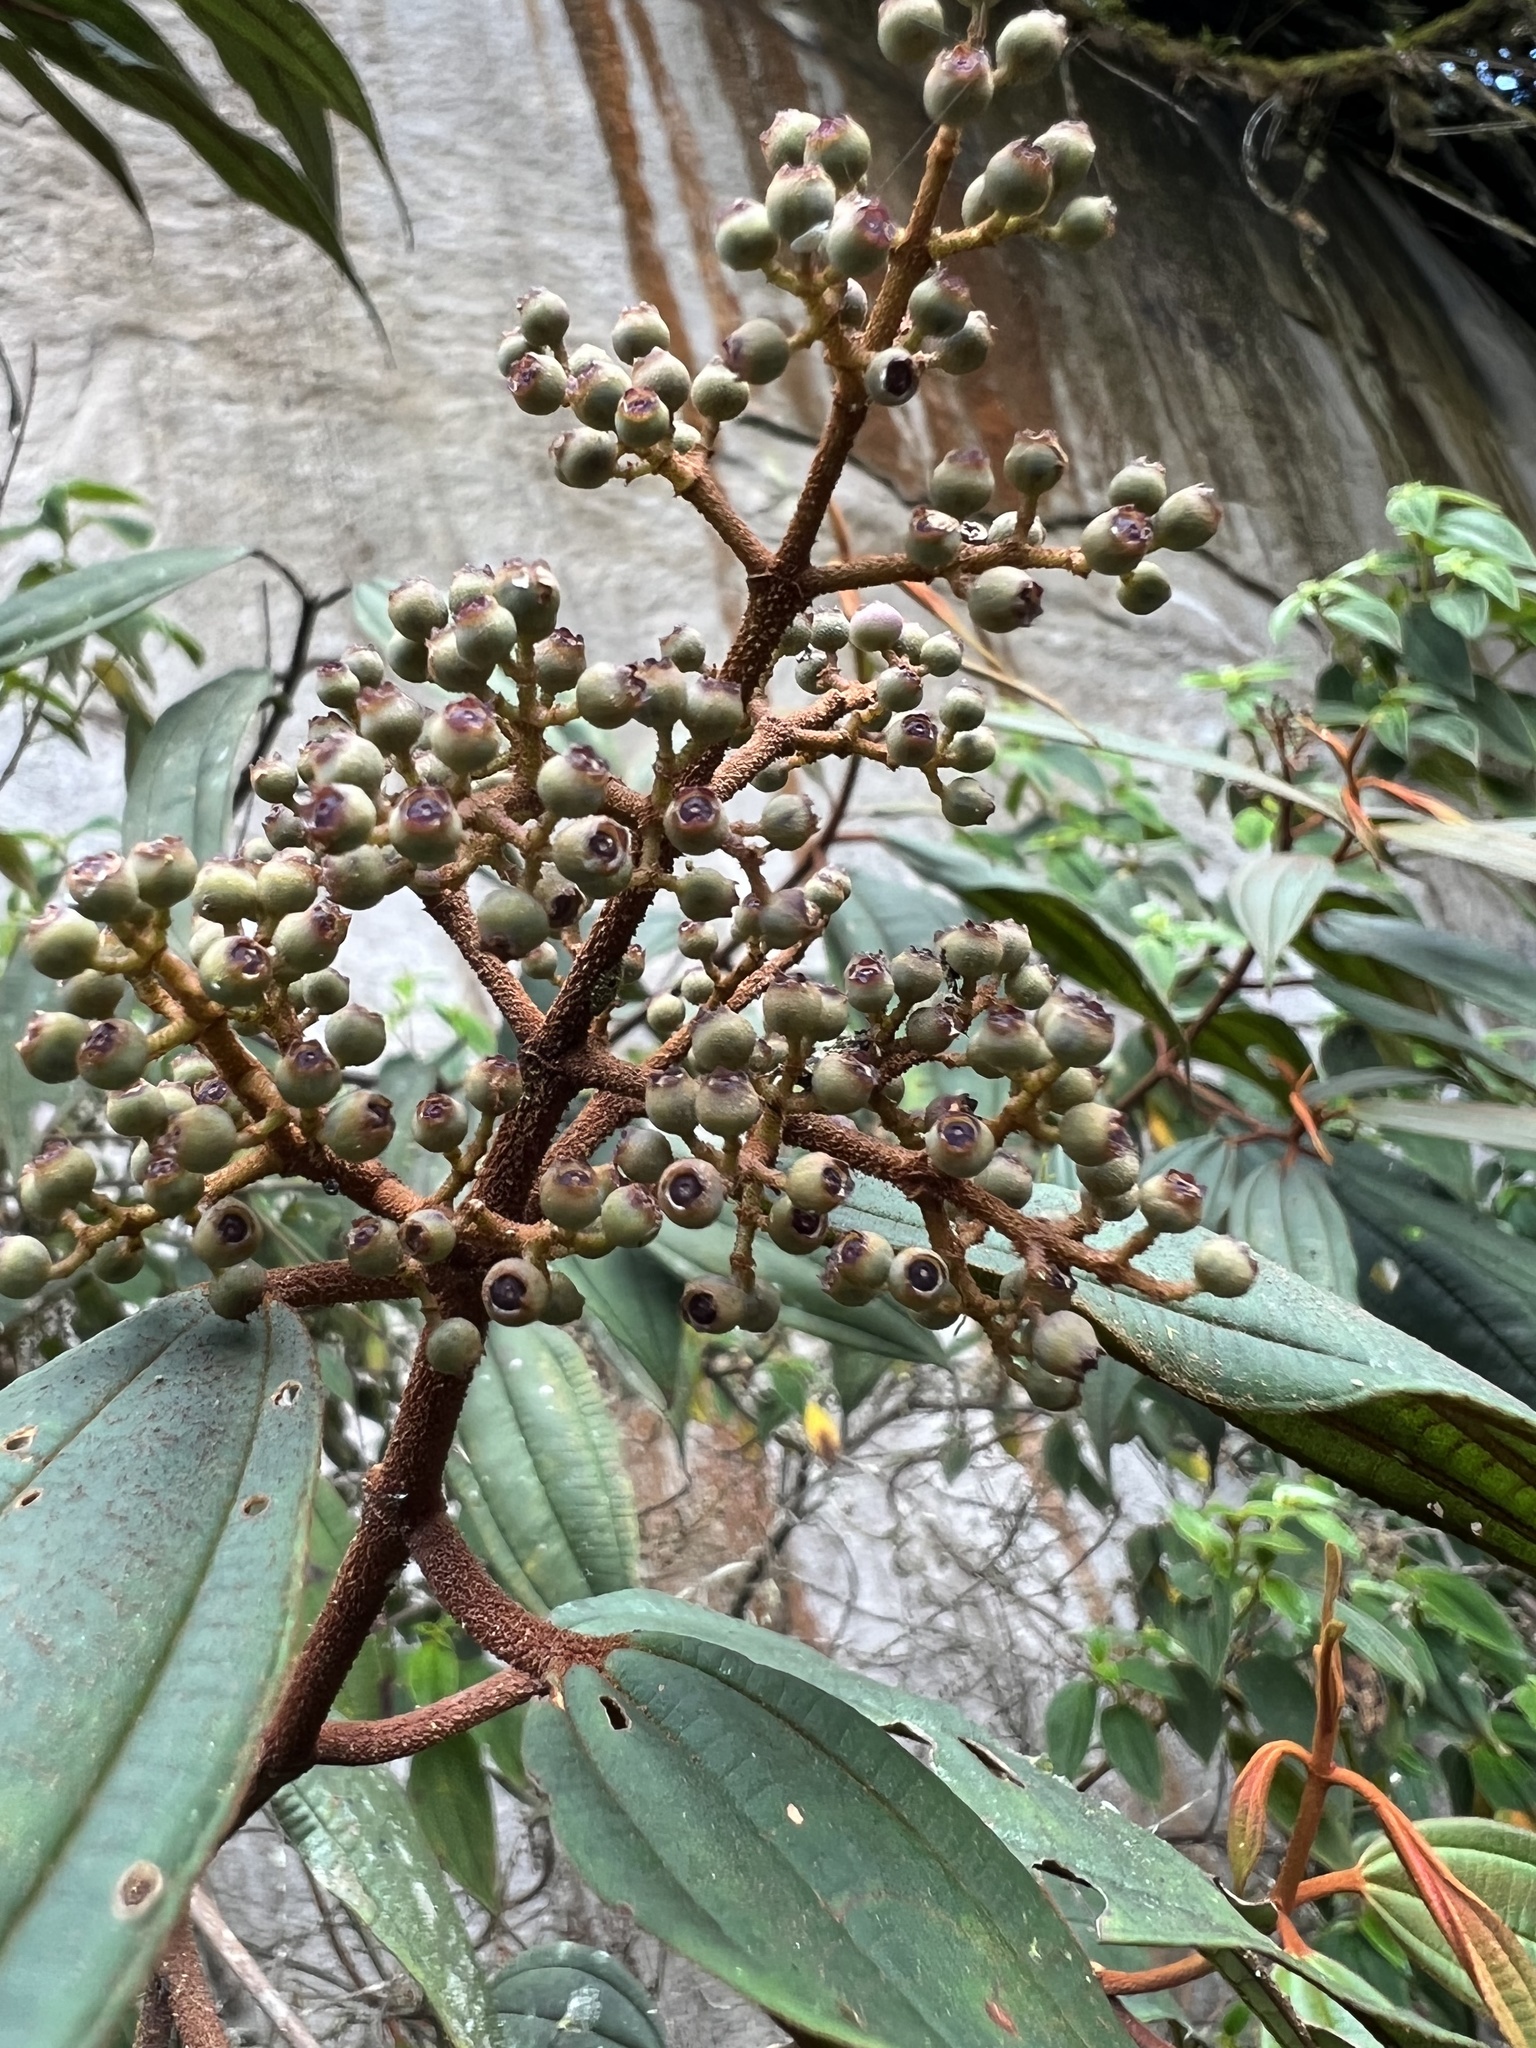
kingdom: Plantae
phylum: Tracheophyta
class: Magnoliopsida
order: Myrtales
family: Melastomataceae
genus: Miconia
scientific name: Miconia miocarpa
